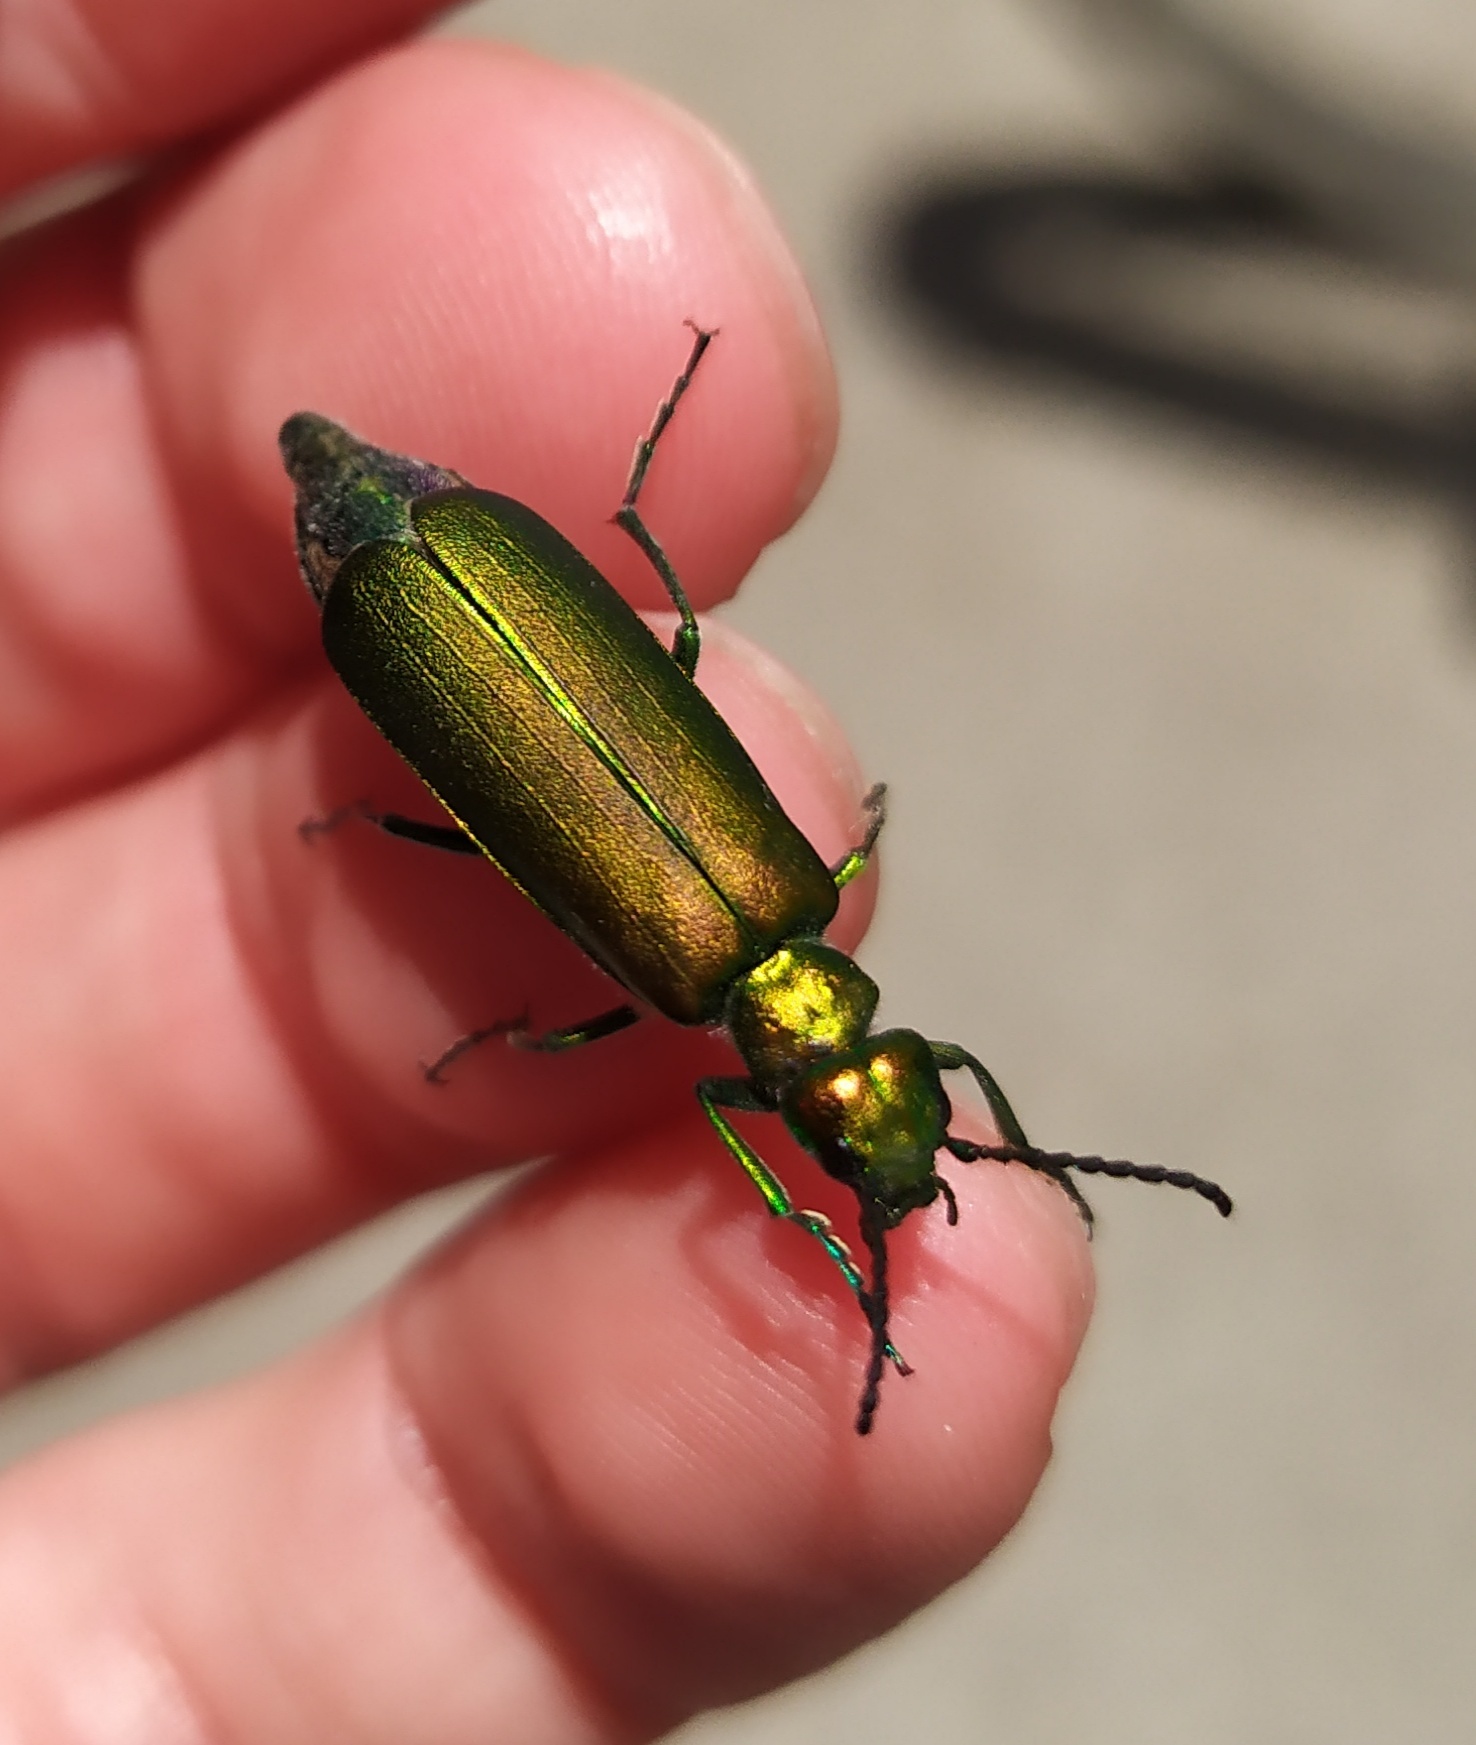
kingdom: Animalia
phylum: Arthropoda
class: Insecta
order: Coleoptera
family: Meloidae
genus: Lytta
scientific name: Lytta vesicatoria
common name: Spanish fly
